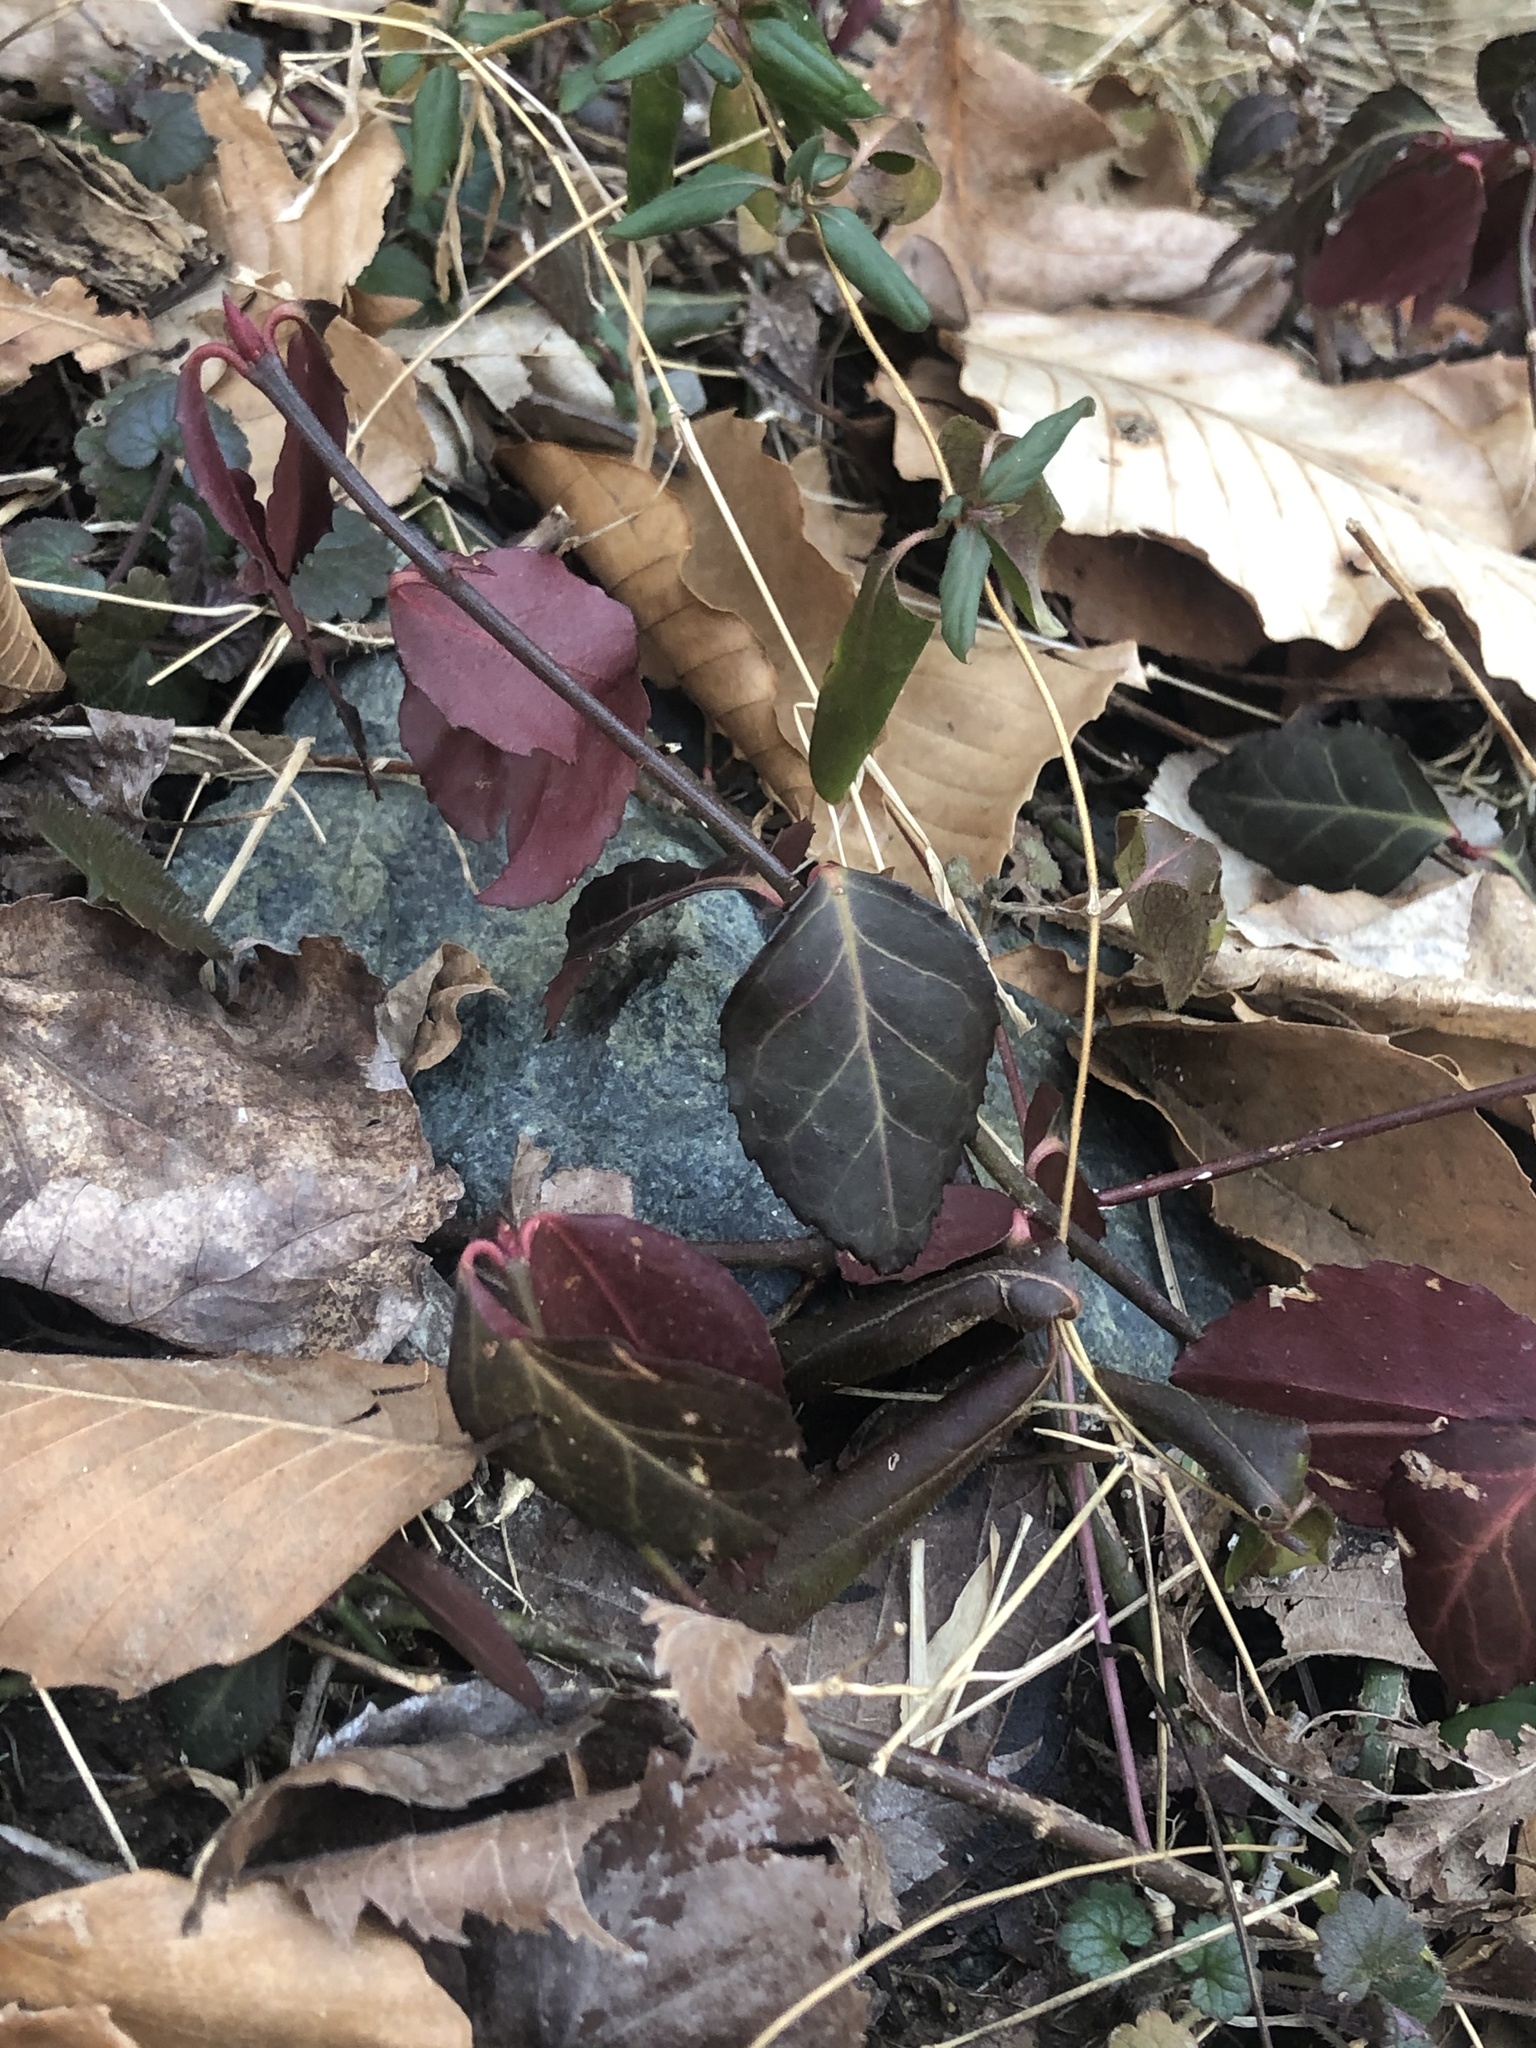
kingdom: Plantae
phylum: Tracheophyta
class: Magnoliopsida
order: Celastrales
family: Celastraceae
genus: Euonymus
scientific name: Euonymus fortunei
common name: Climbing euonymus
